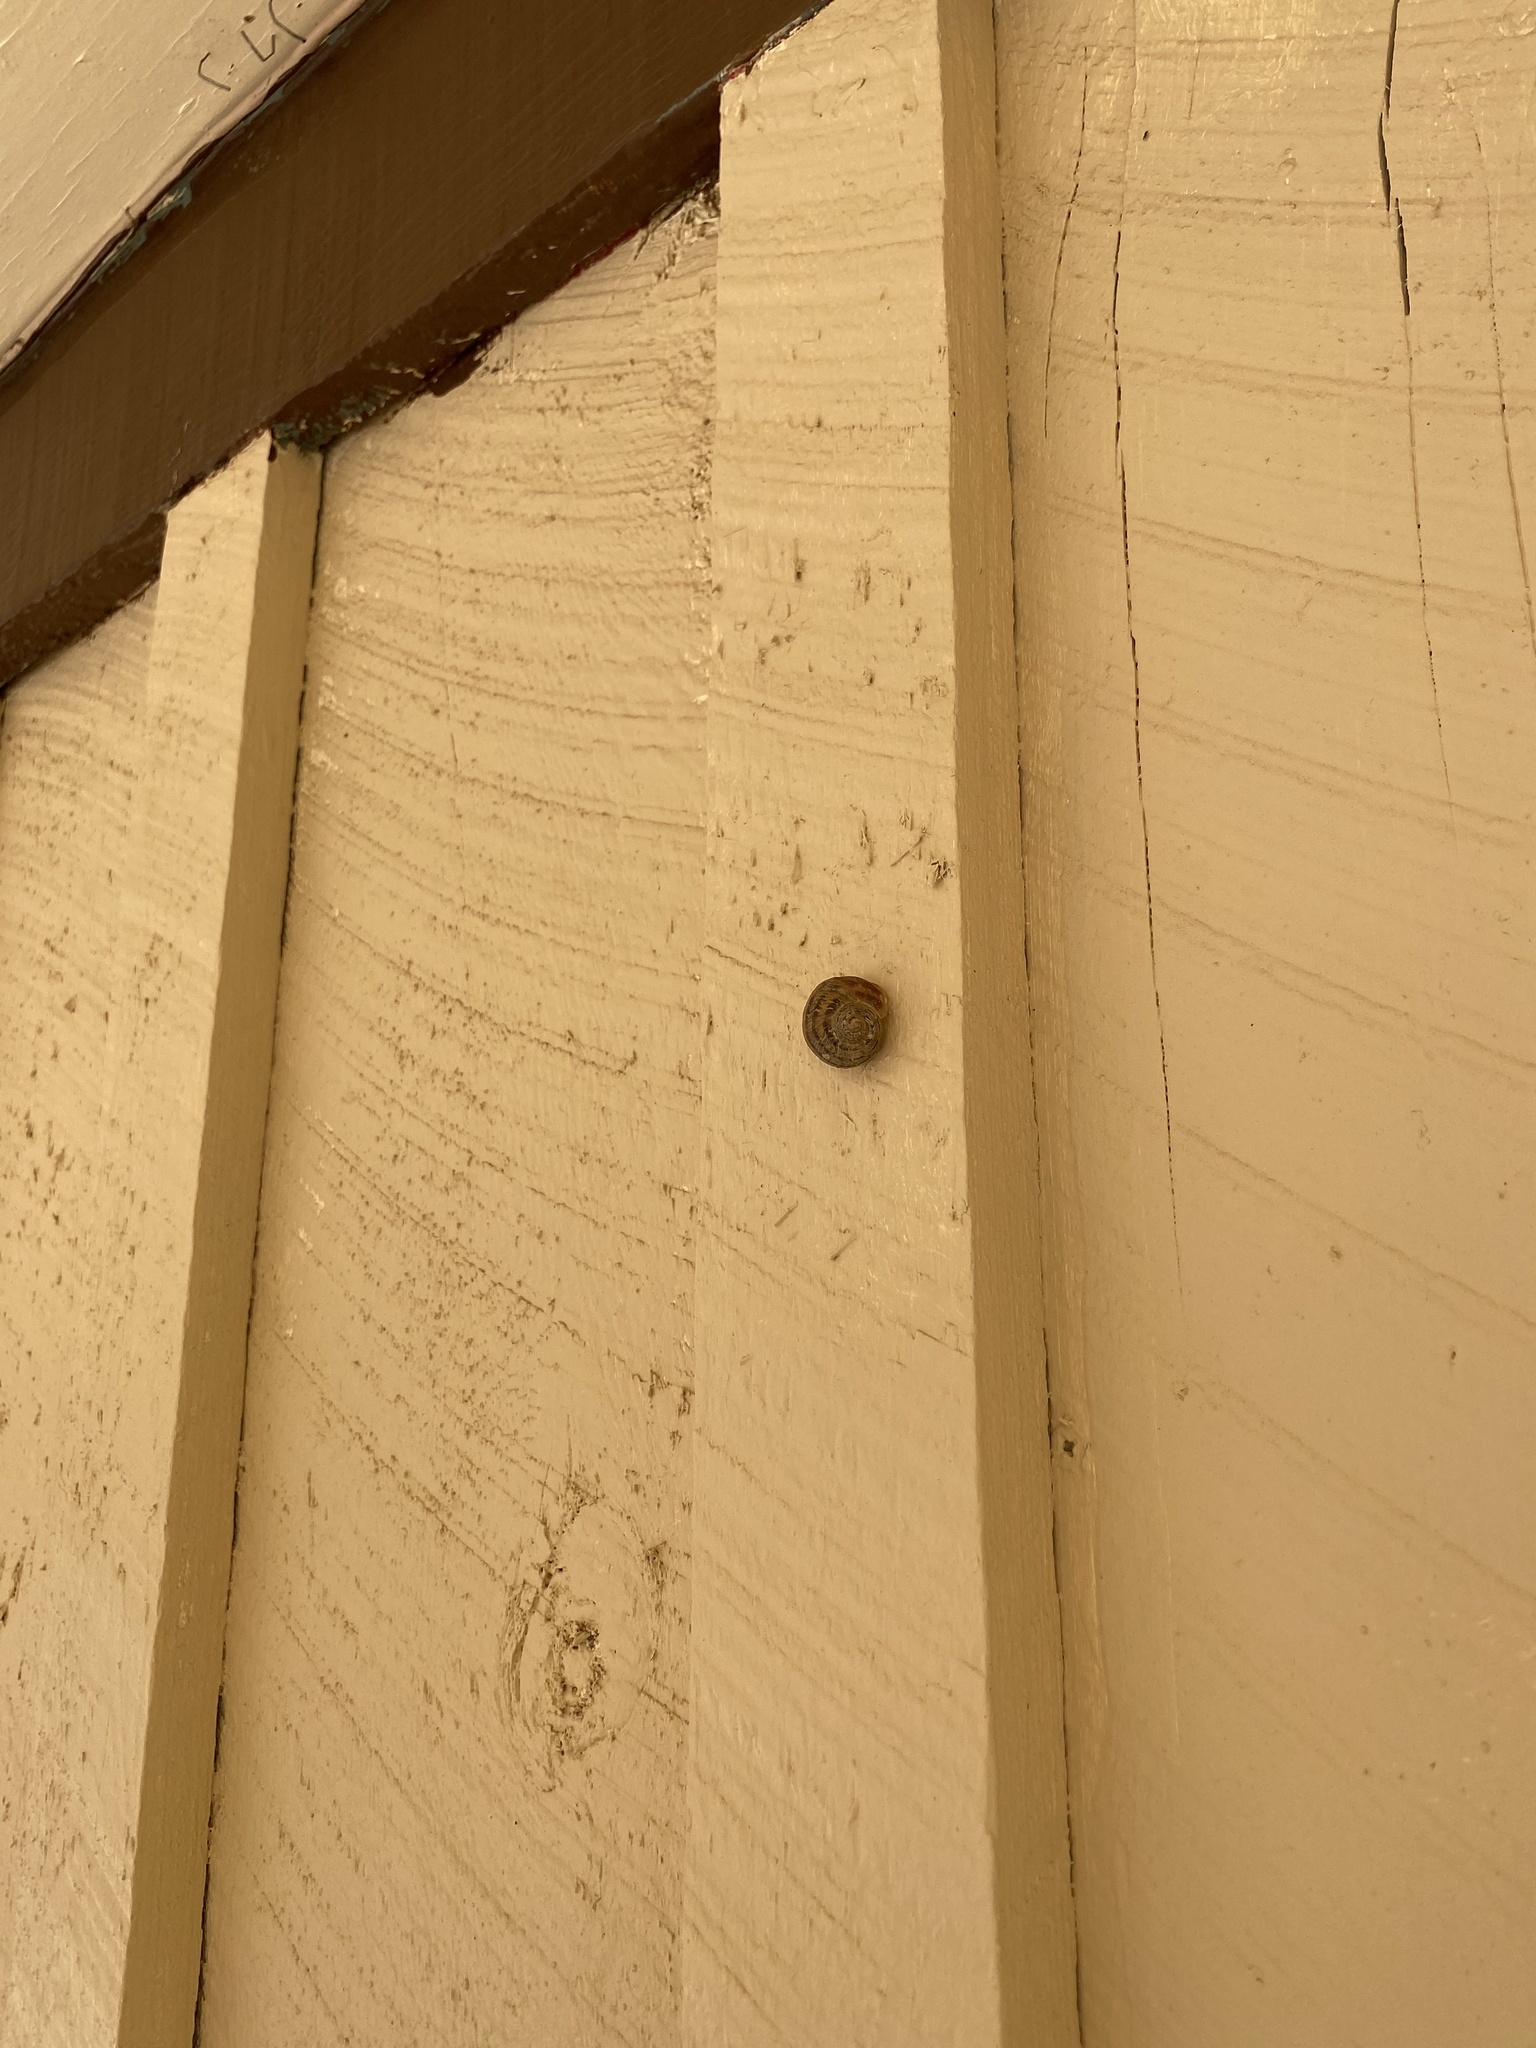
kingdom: Animalia
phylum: Mollusca
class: Gastropoda
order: Stylommatophora
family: Helicidae
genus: Cornu
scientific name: Cornu aspersum
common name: Brown garden snail
